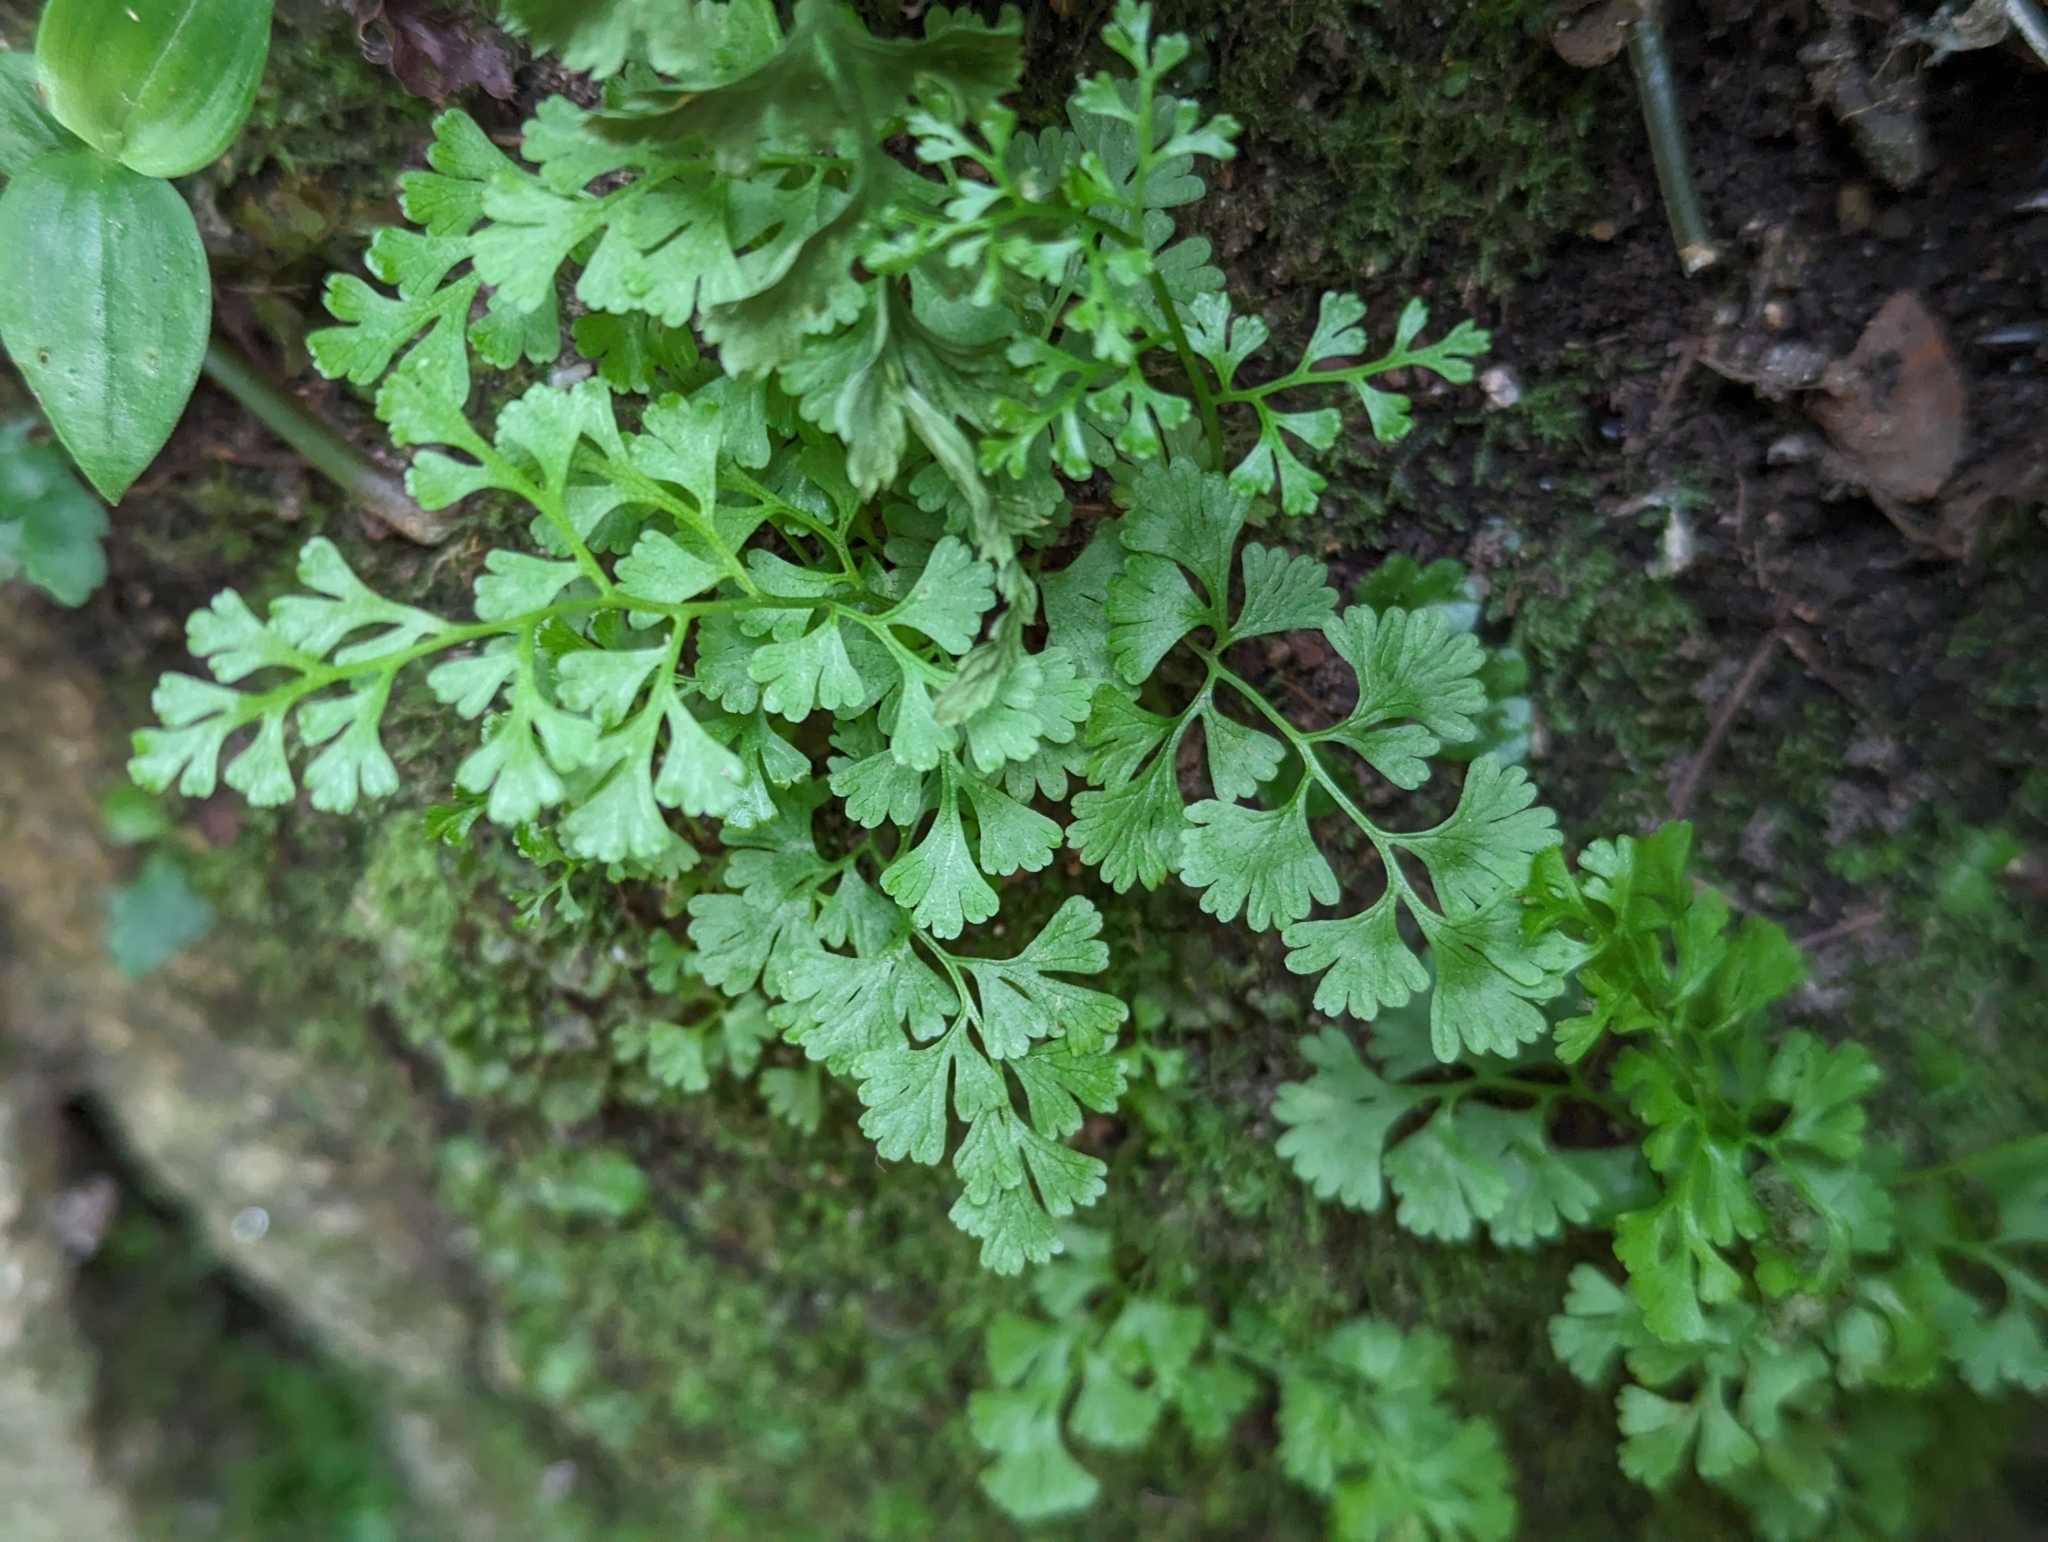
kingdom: Plantae
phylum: Tracheophyta
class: Polypodiopsida
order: Polypodiales
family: Pteridaceae
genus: Anogramma
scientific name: Anogramma leptophylla
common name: Jersey fern
